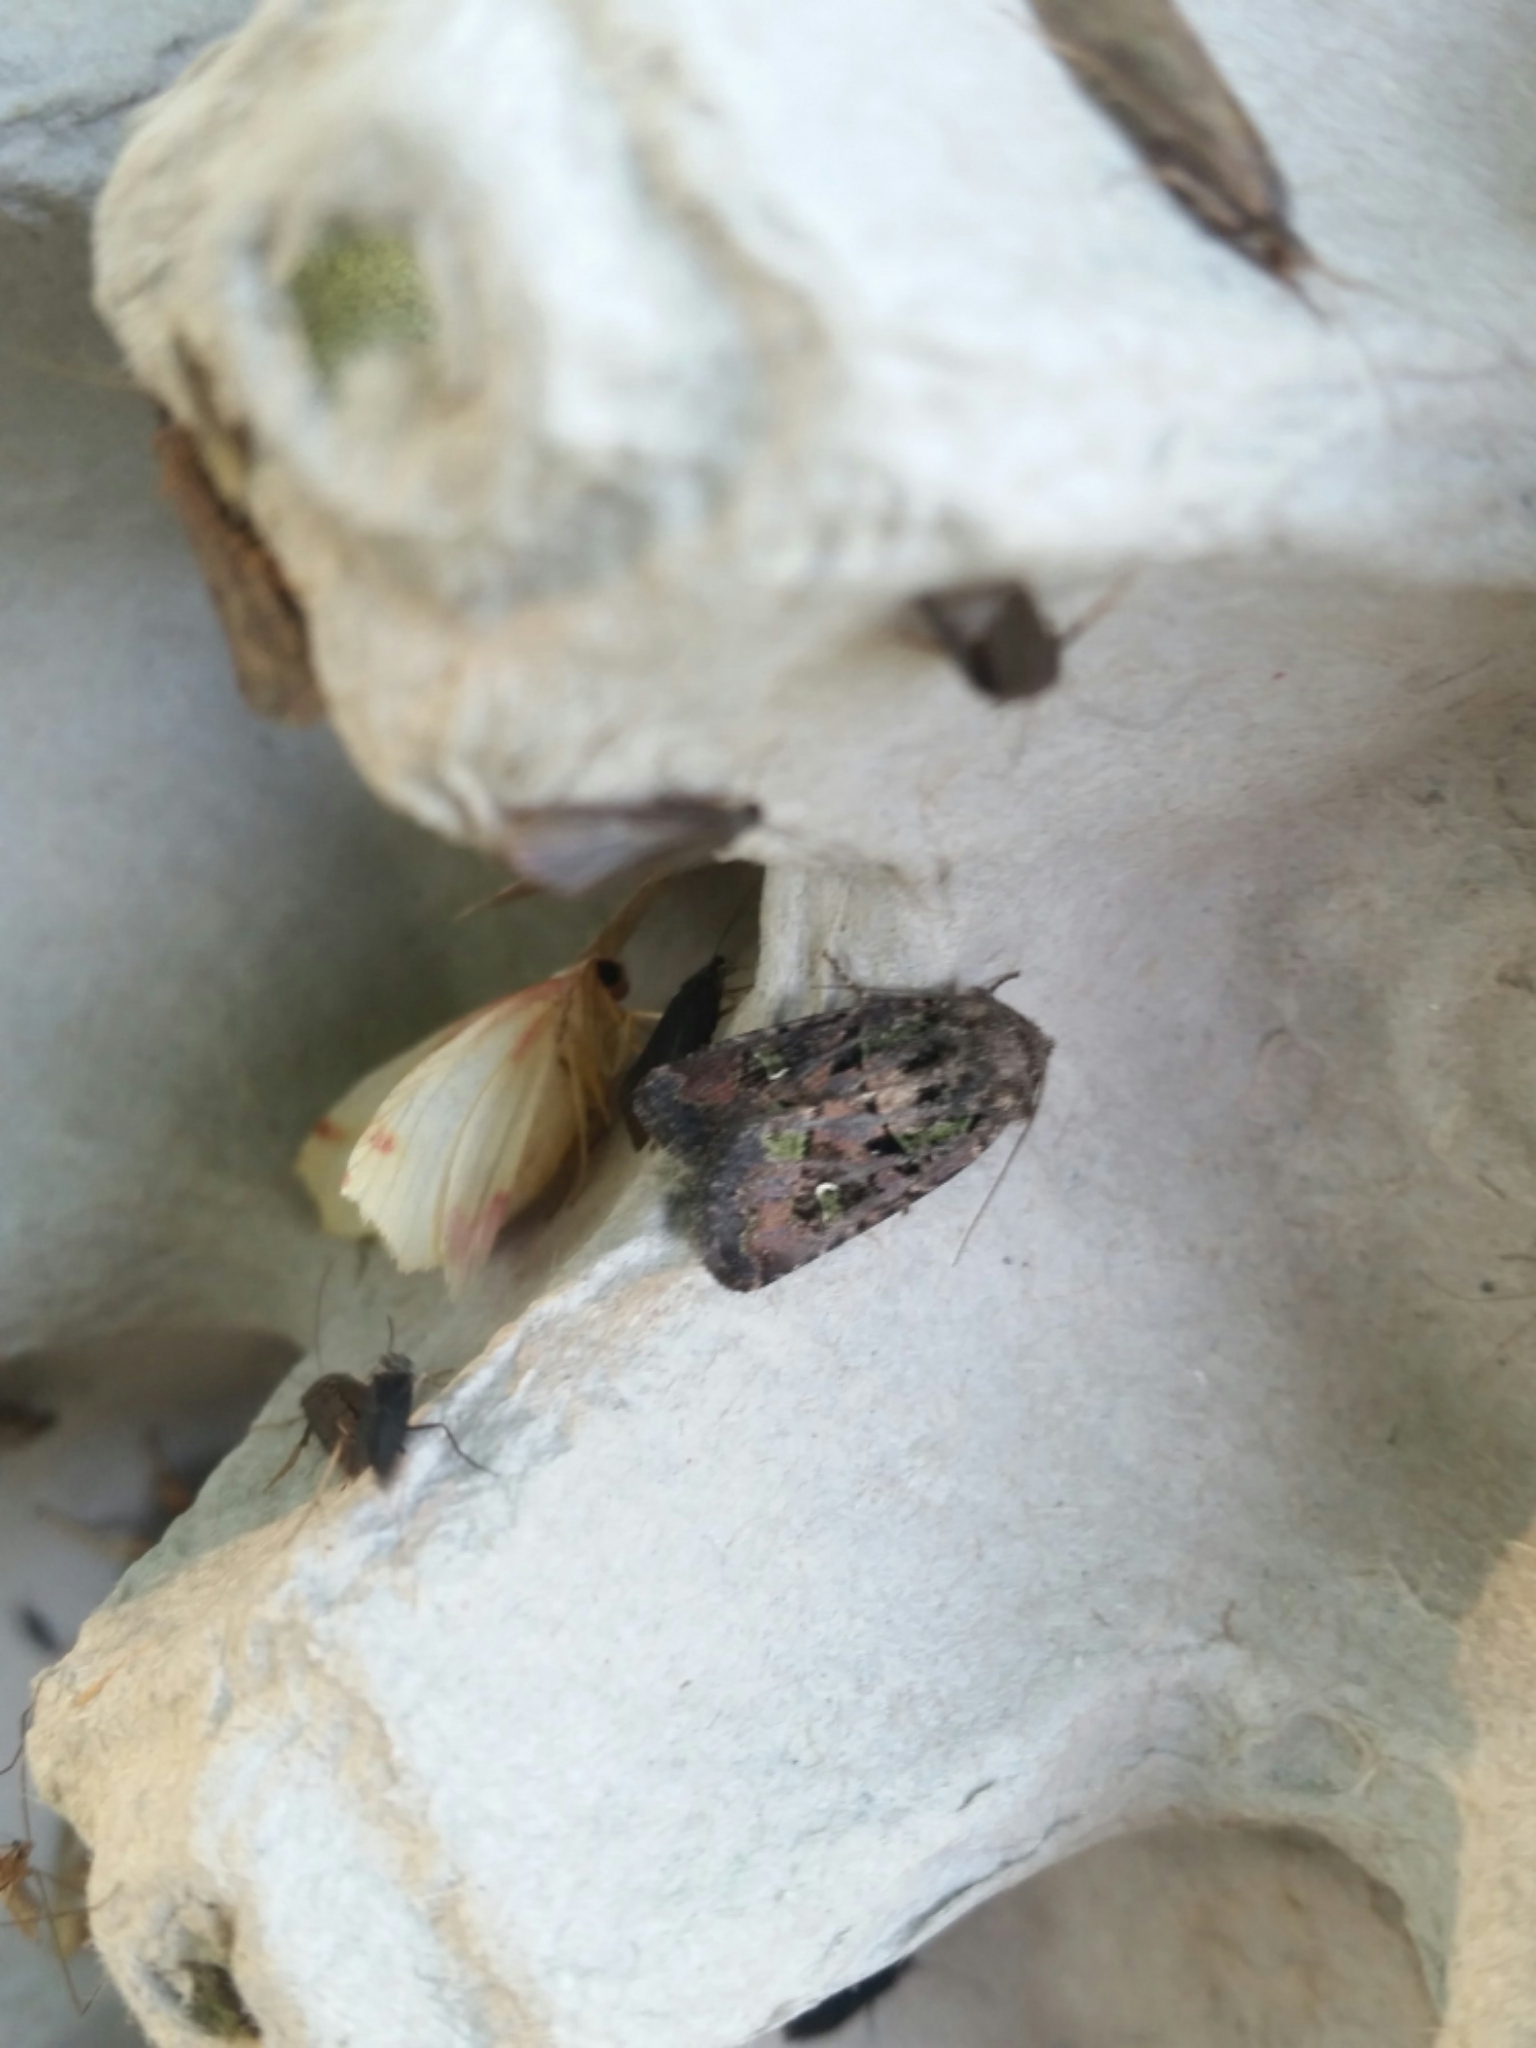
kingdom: Animalia
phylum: Arthropoda
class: Insecta
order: Lepidoptera
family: Noctuidae
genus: Lacinipolia
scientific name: Lacinipolia renigera
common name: Kidney-spotted minor
